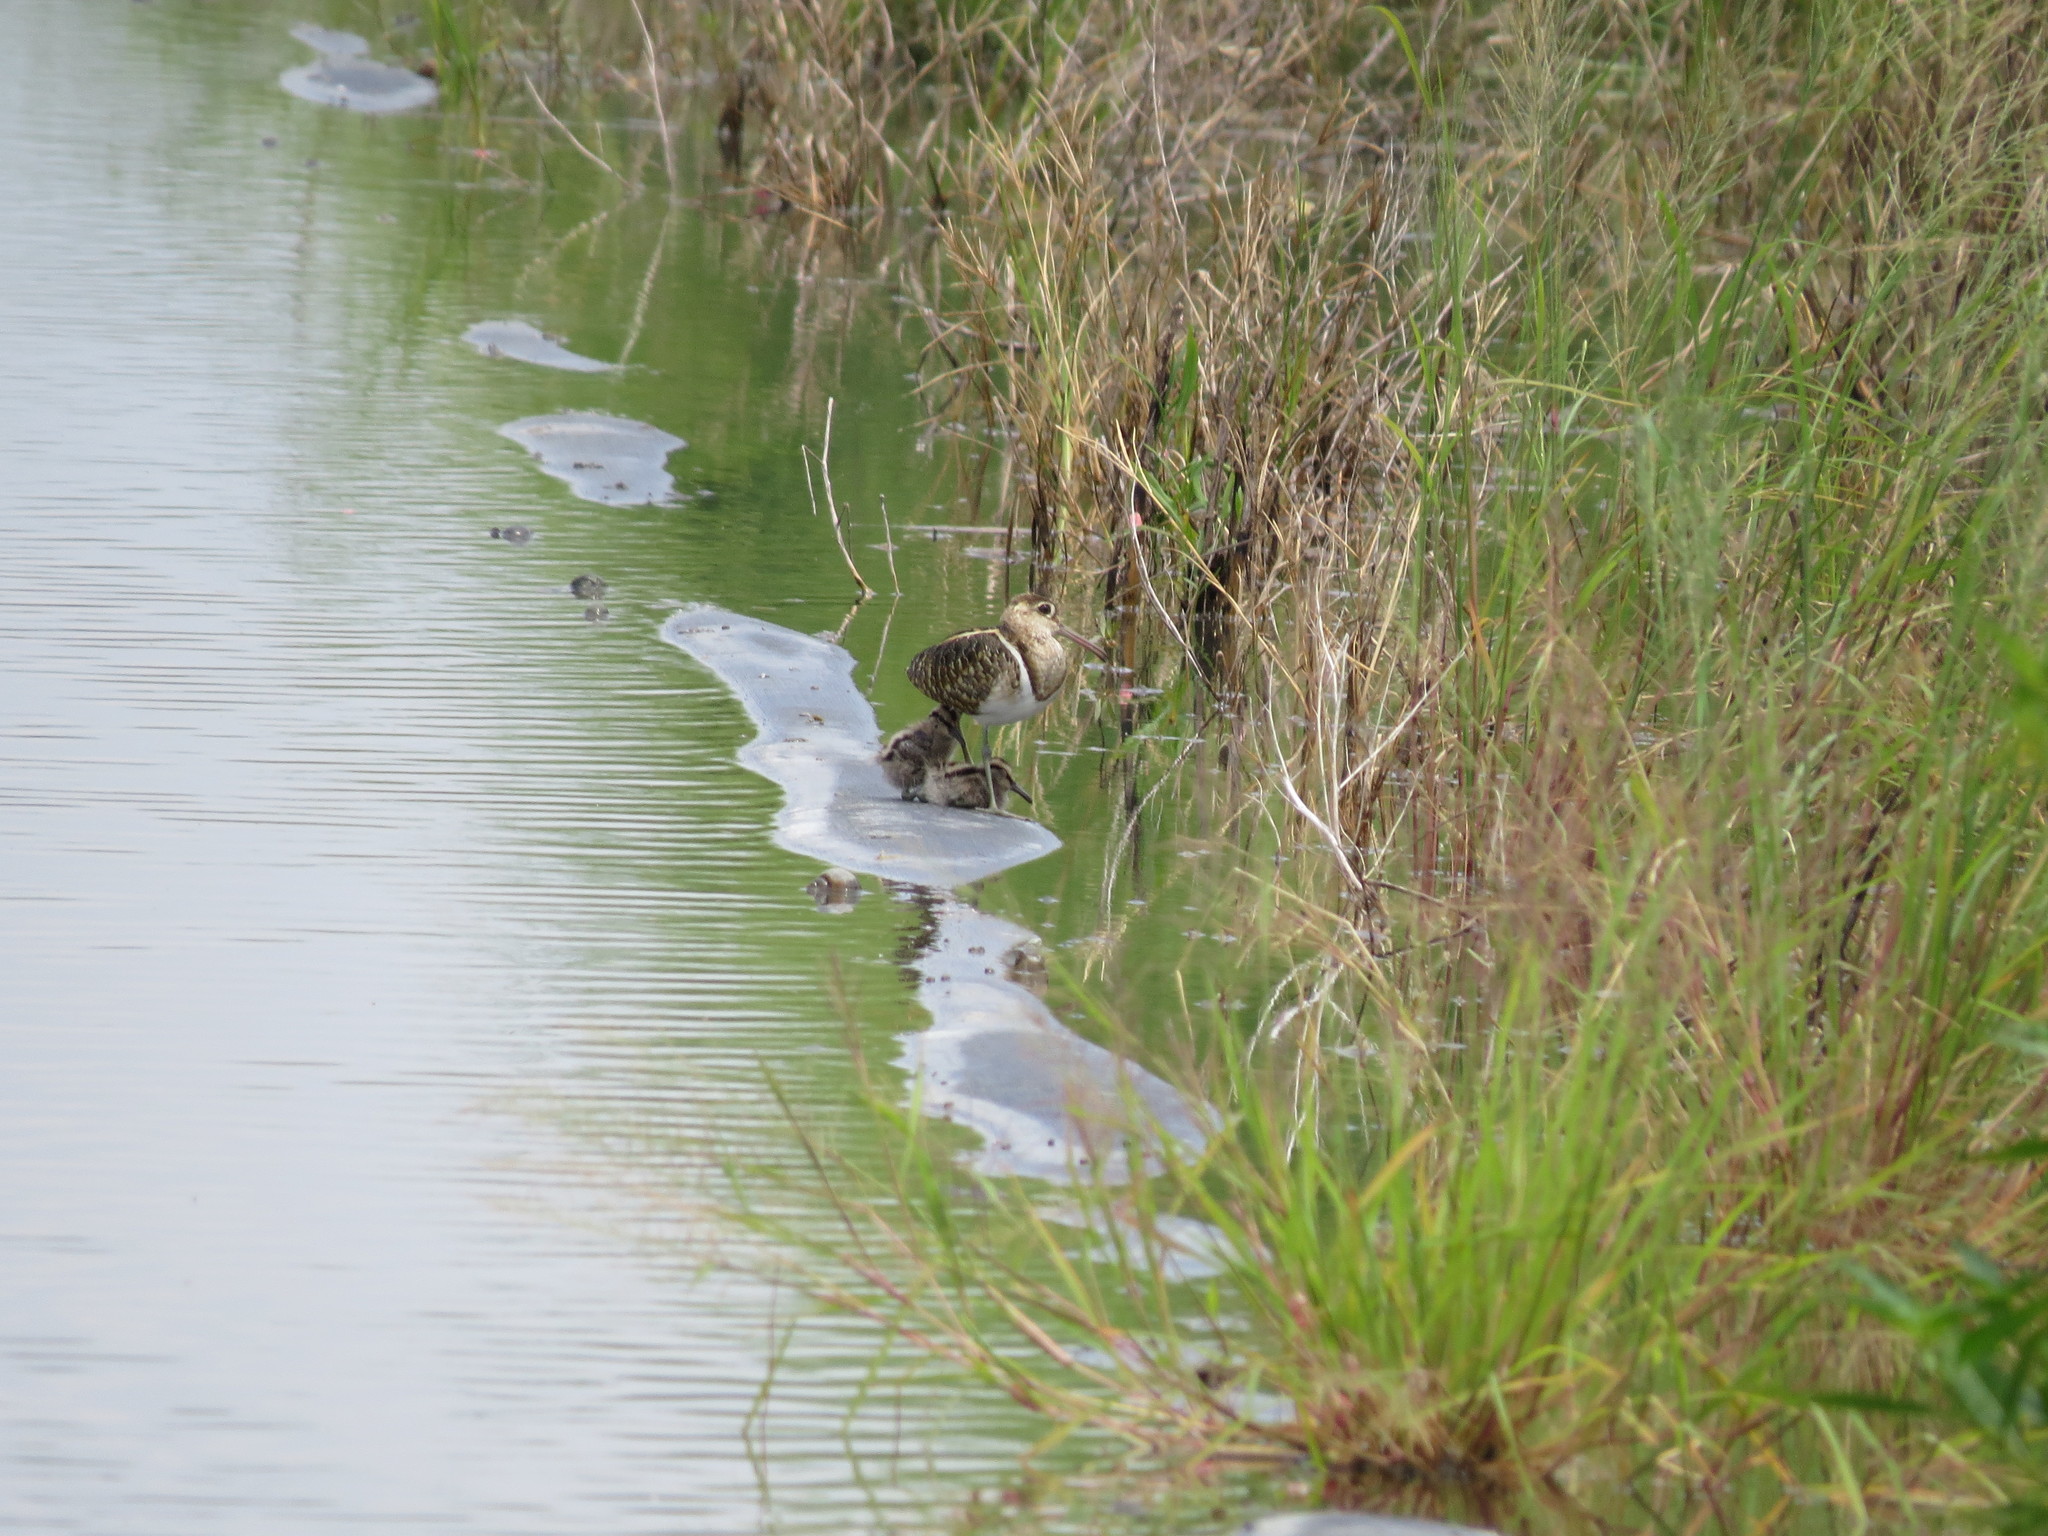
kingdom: Animalia
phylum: Chordata
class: Aves
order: Charadriiformes
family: Rostratulidae
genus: Rostratula
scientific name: Rostratula benghalensis
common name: Greater painted-snipe
